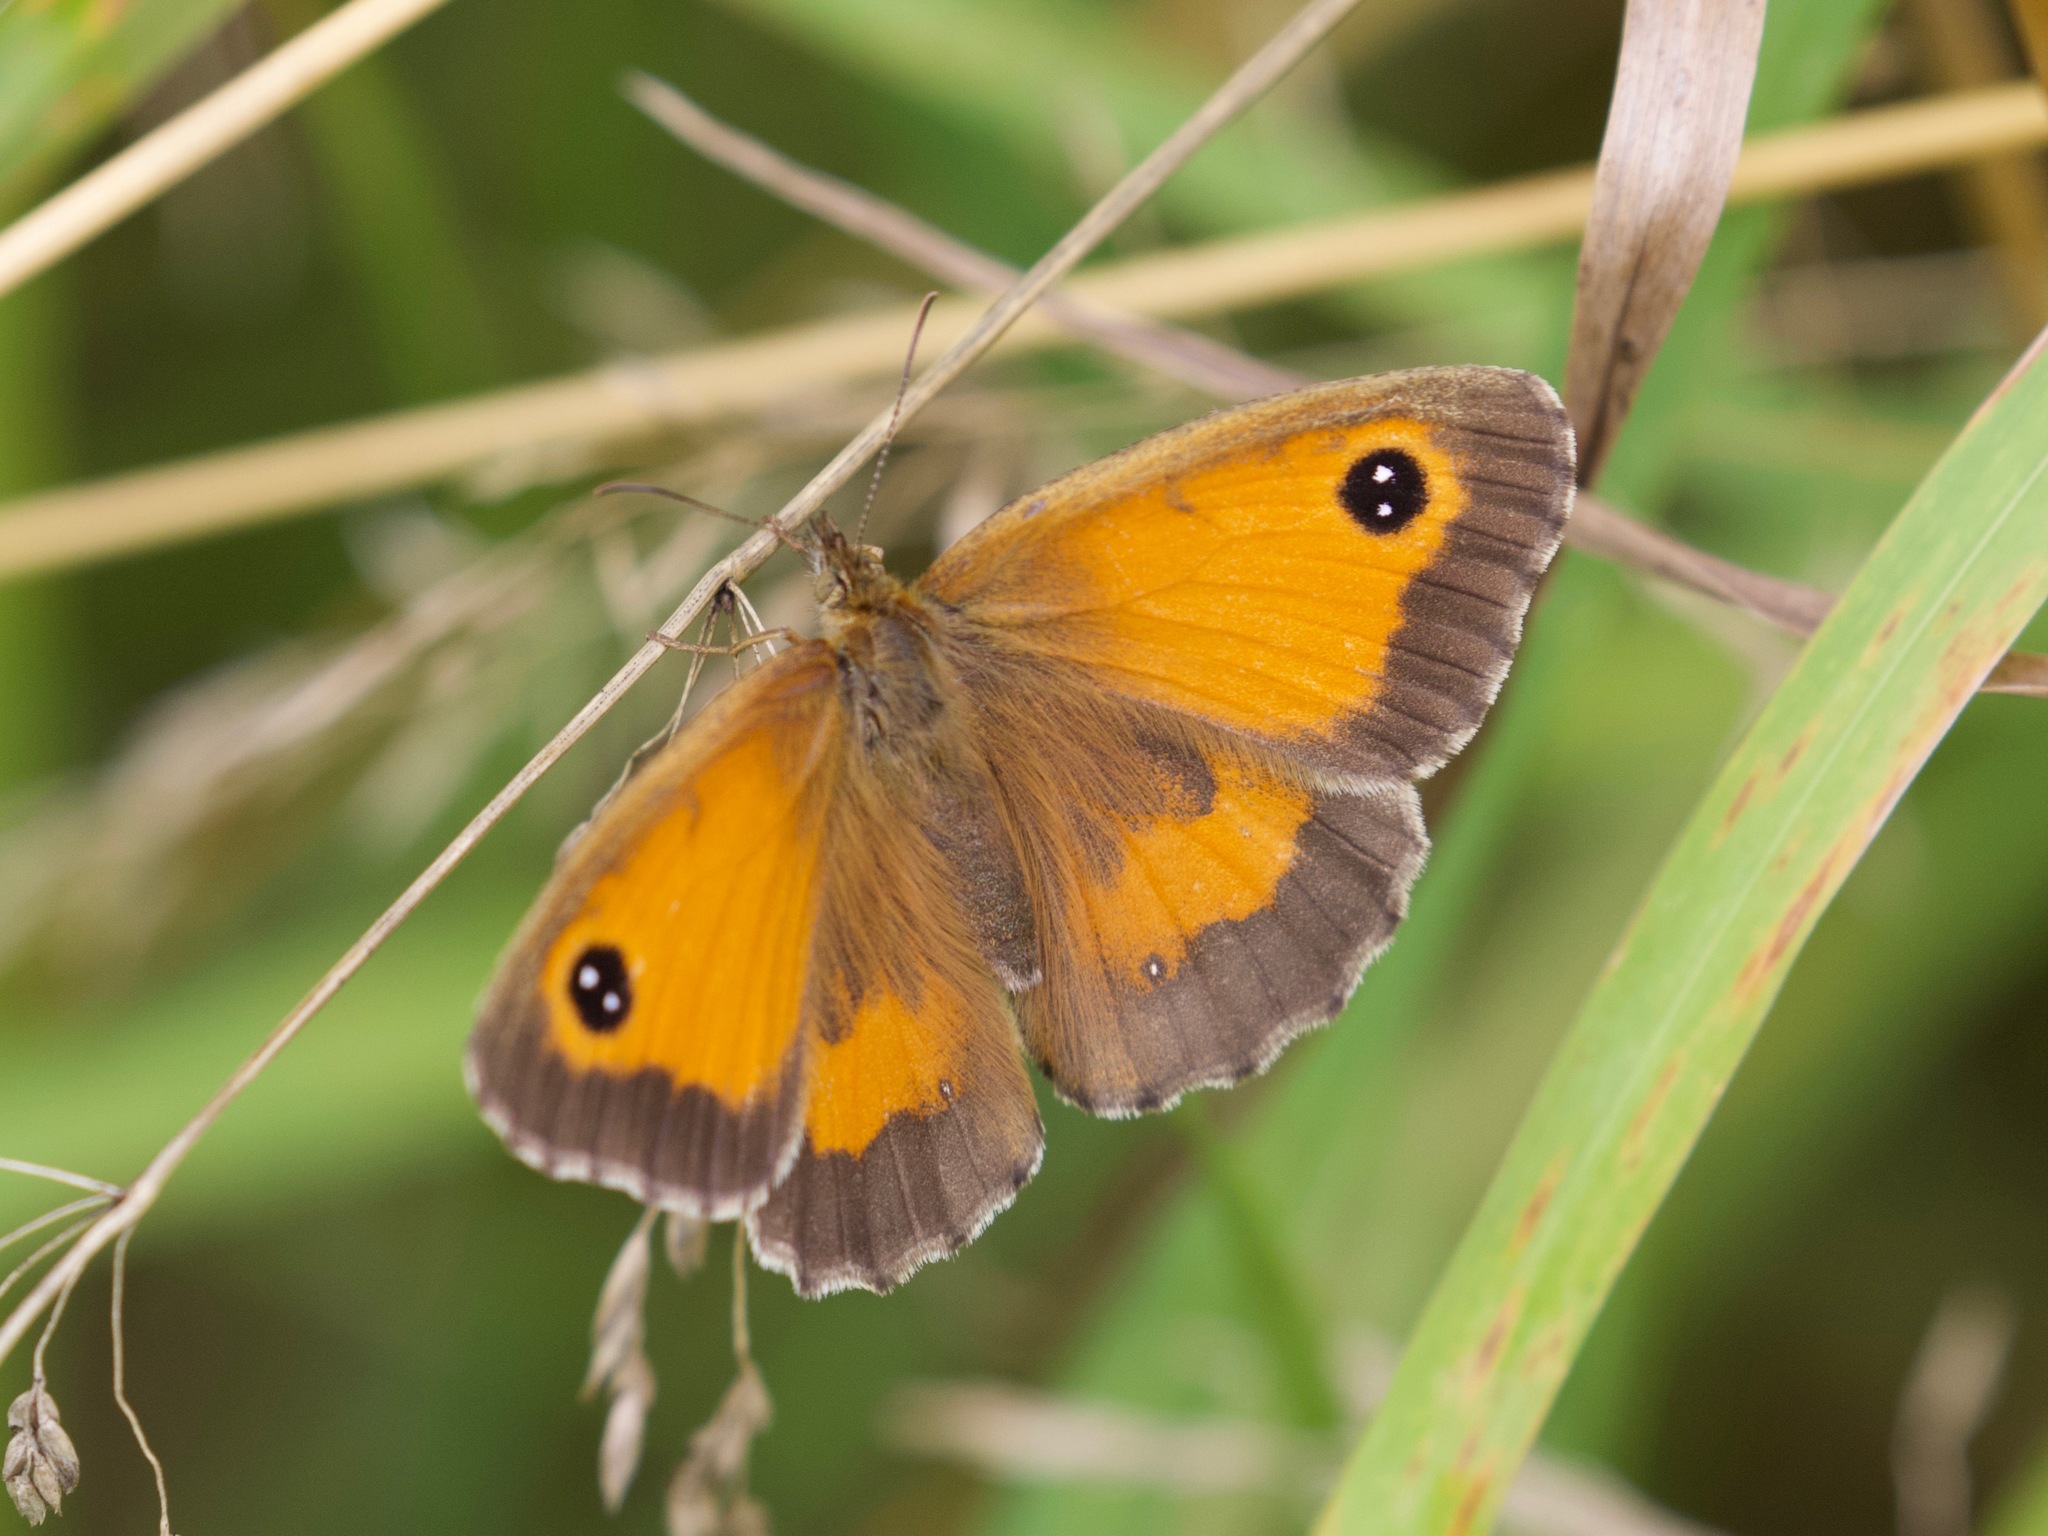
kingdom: Animalia
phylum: Arthropoda
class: Insecta
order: Lepidoptera
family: Nymphalidae
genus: Pyronia
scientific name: Pyronia tithonus
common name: Gatekeeper
